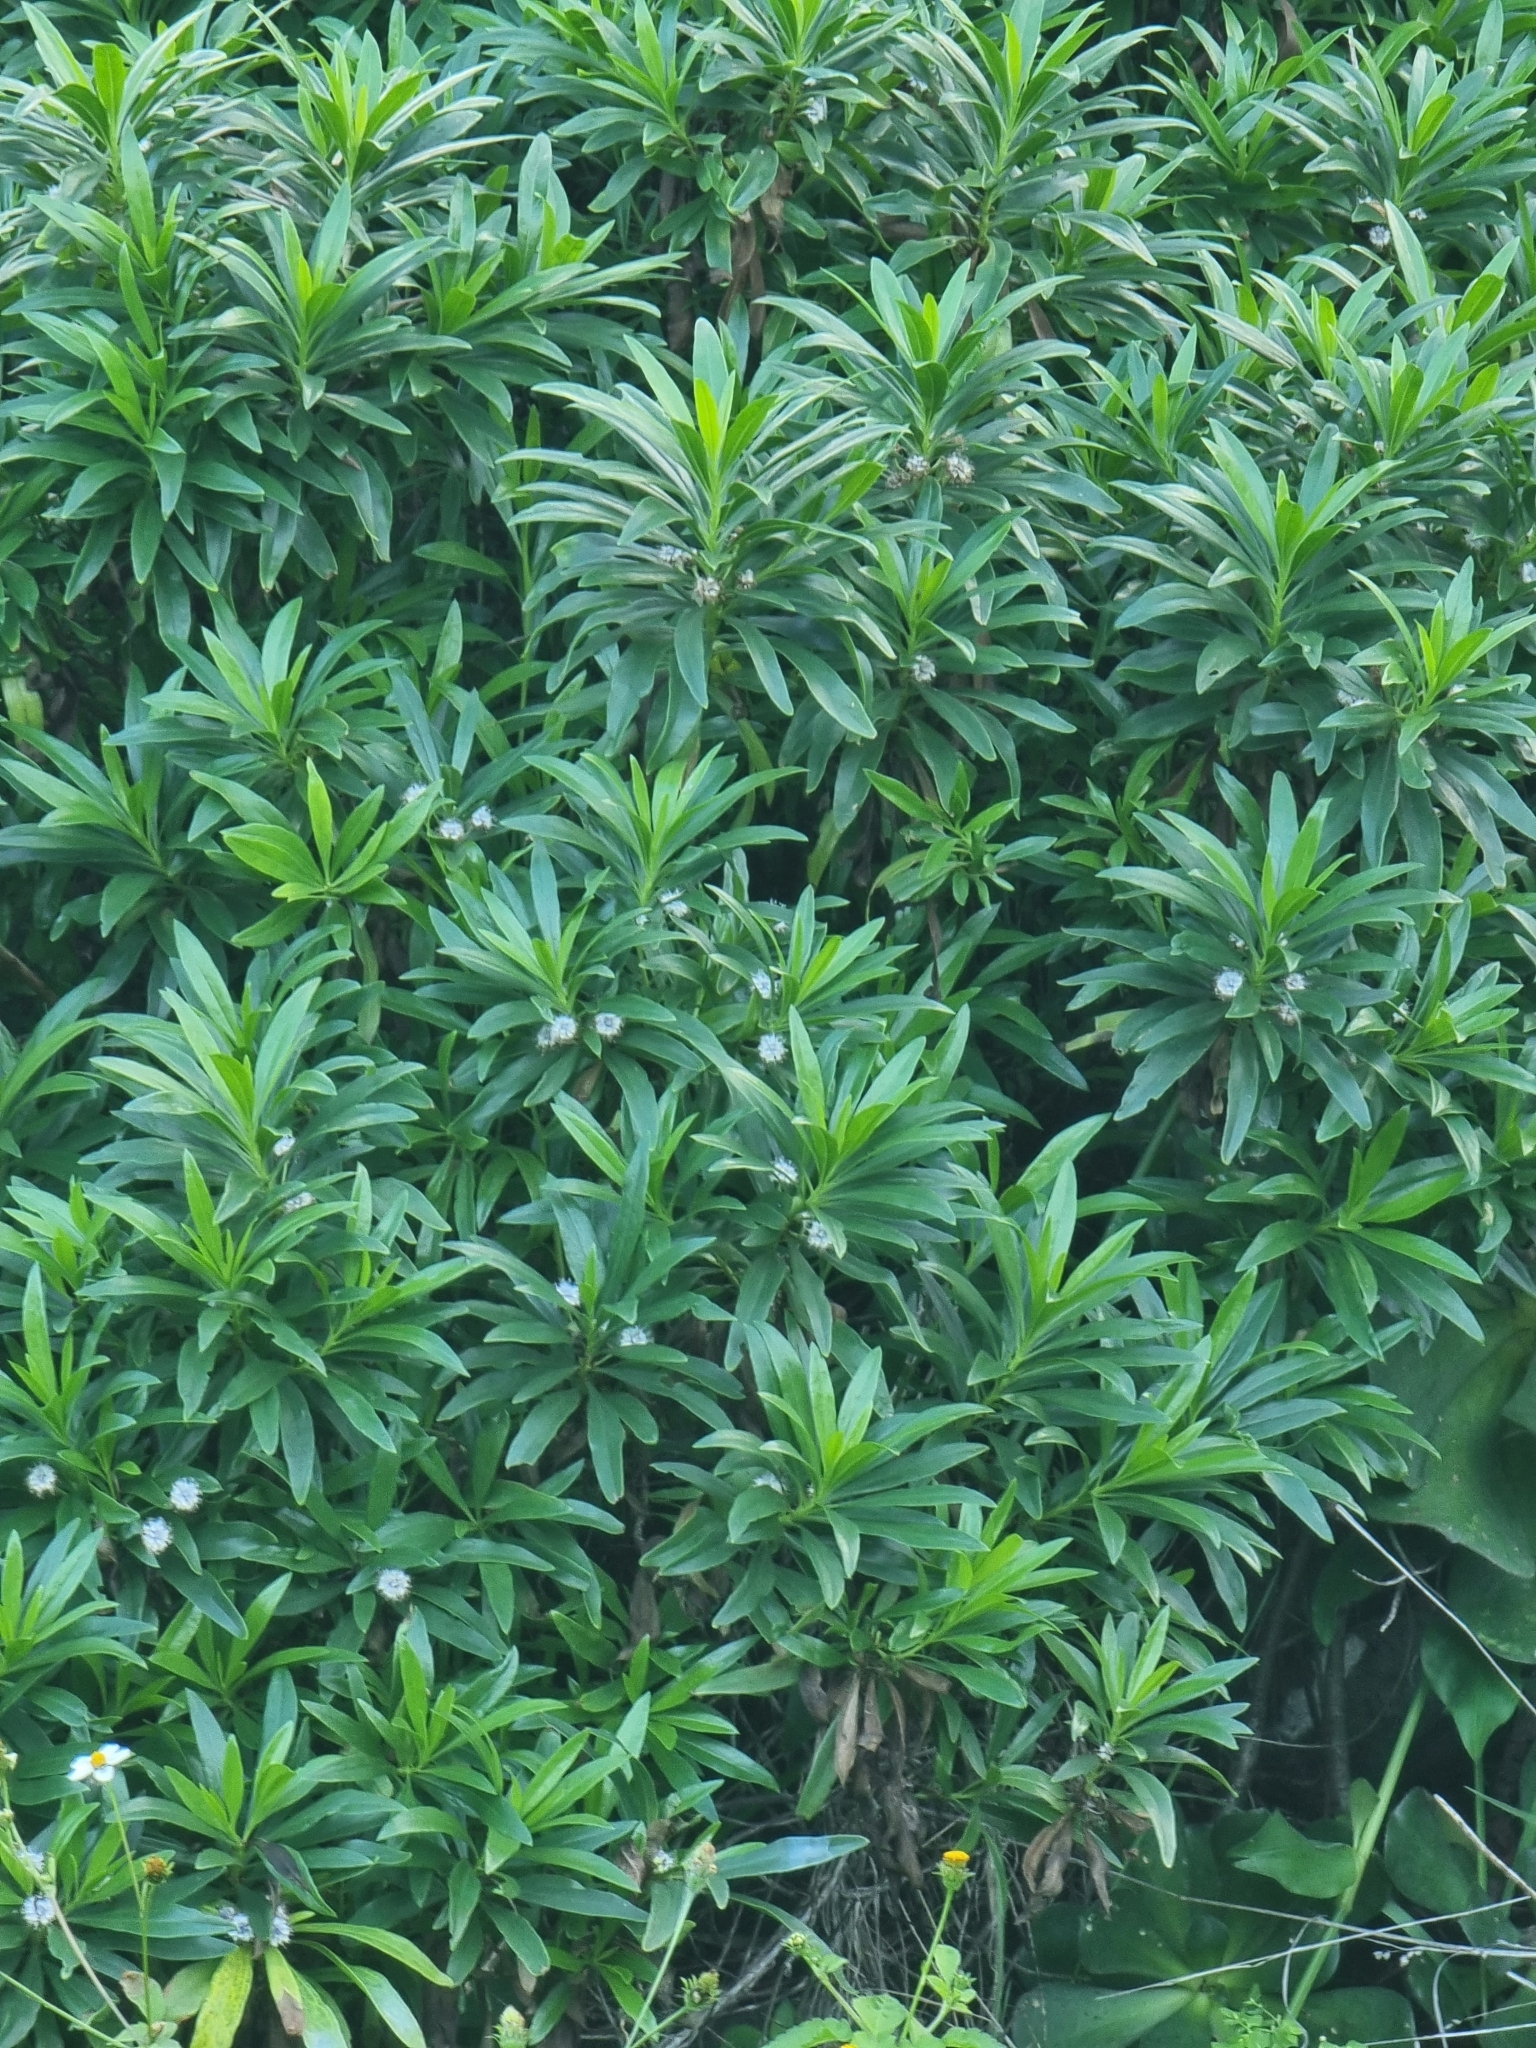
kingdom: Plantae
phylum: Tracheophyta
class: Magnoliopsida
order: Lamiales
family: Plantaginaceae
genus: Globularia
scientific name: Globularia salicina
